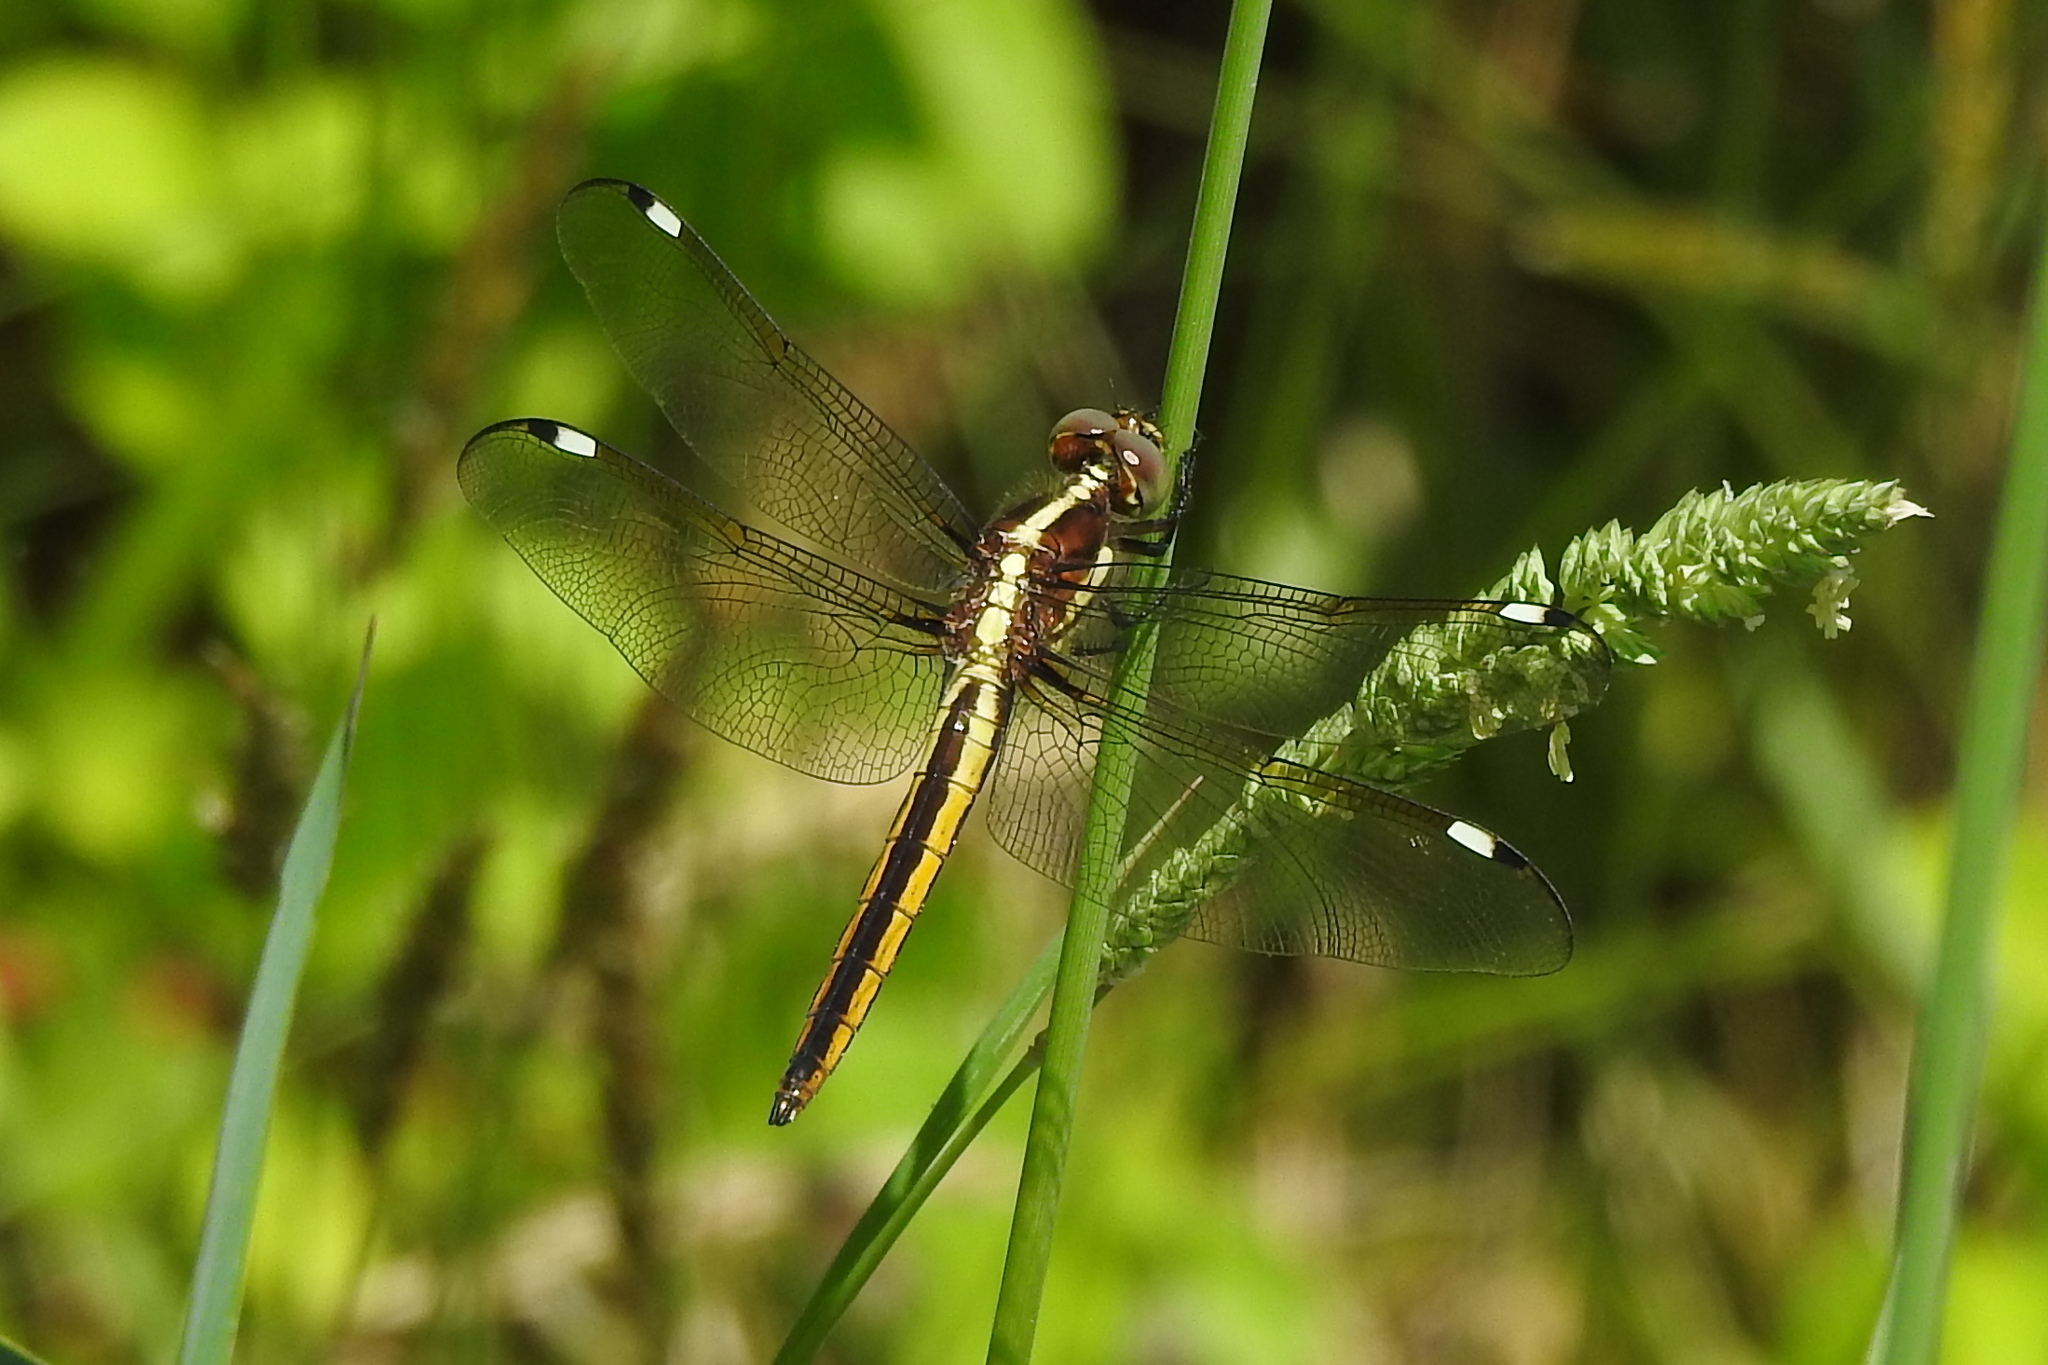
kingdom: Animalia
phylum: Arthropoda
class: Insecta
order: Odonata
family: Libellulidae
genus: Libellula
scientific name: Libellula cyanea
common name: Spangled skimmer
